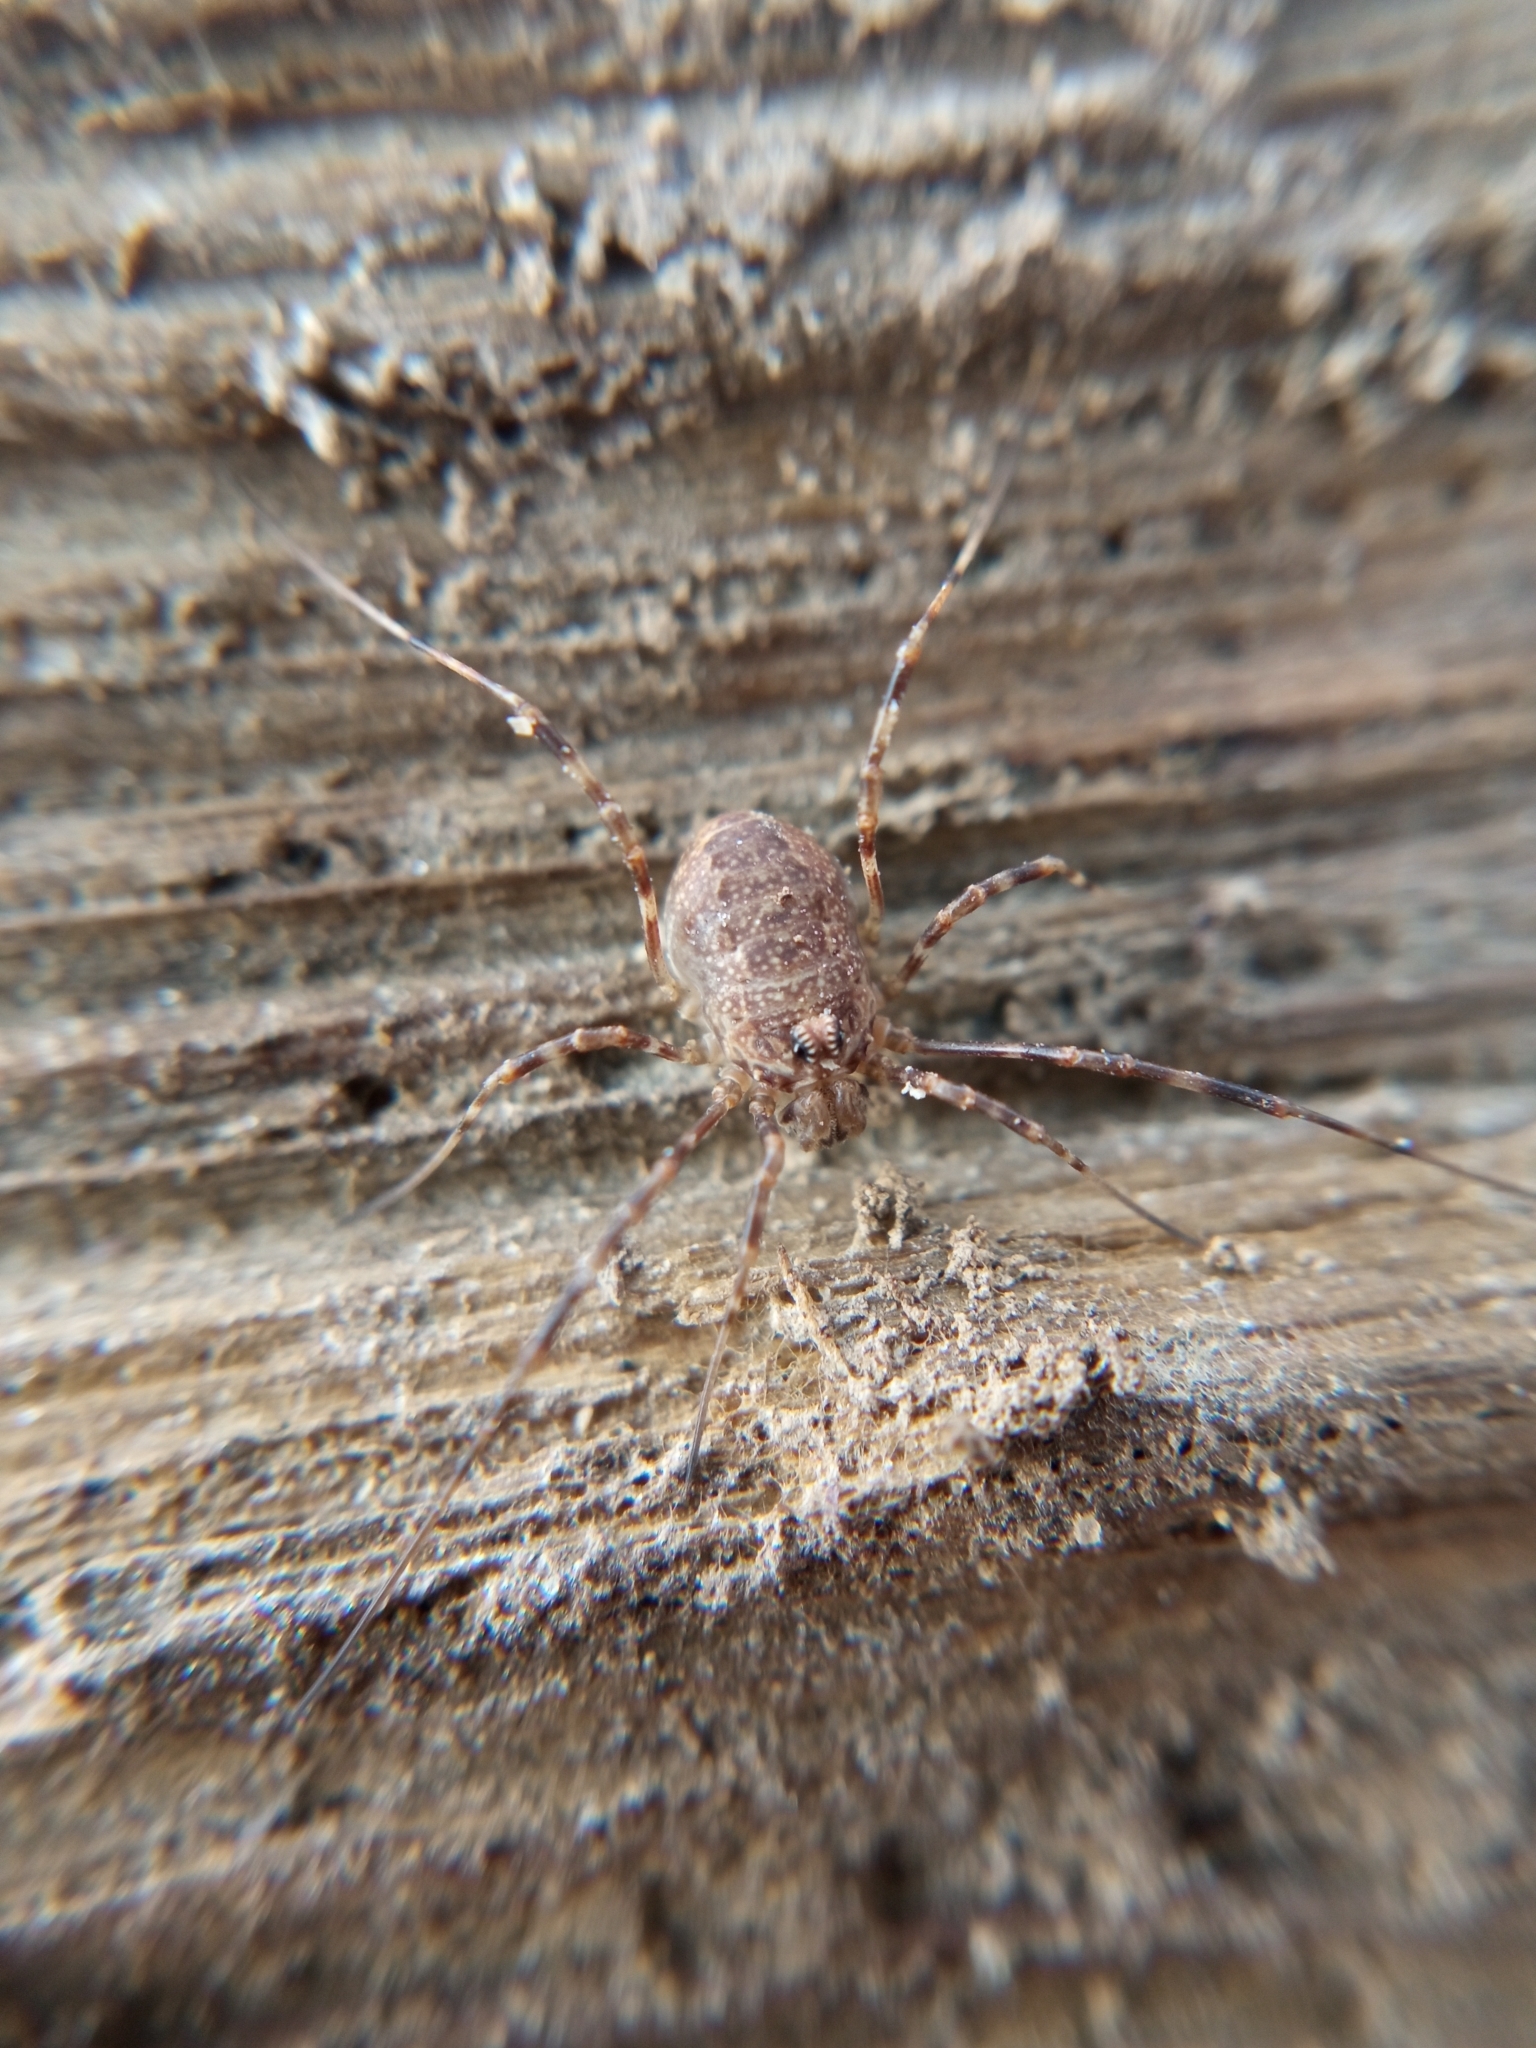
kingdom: Animalia
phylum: Arthropoda
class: Arachnida
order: Opiliones
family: Phalangiidae
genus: Rilaena
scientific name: Rilaena triangularis
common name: Spring harvestman
